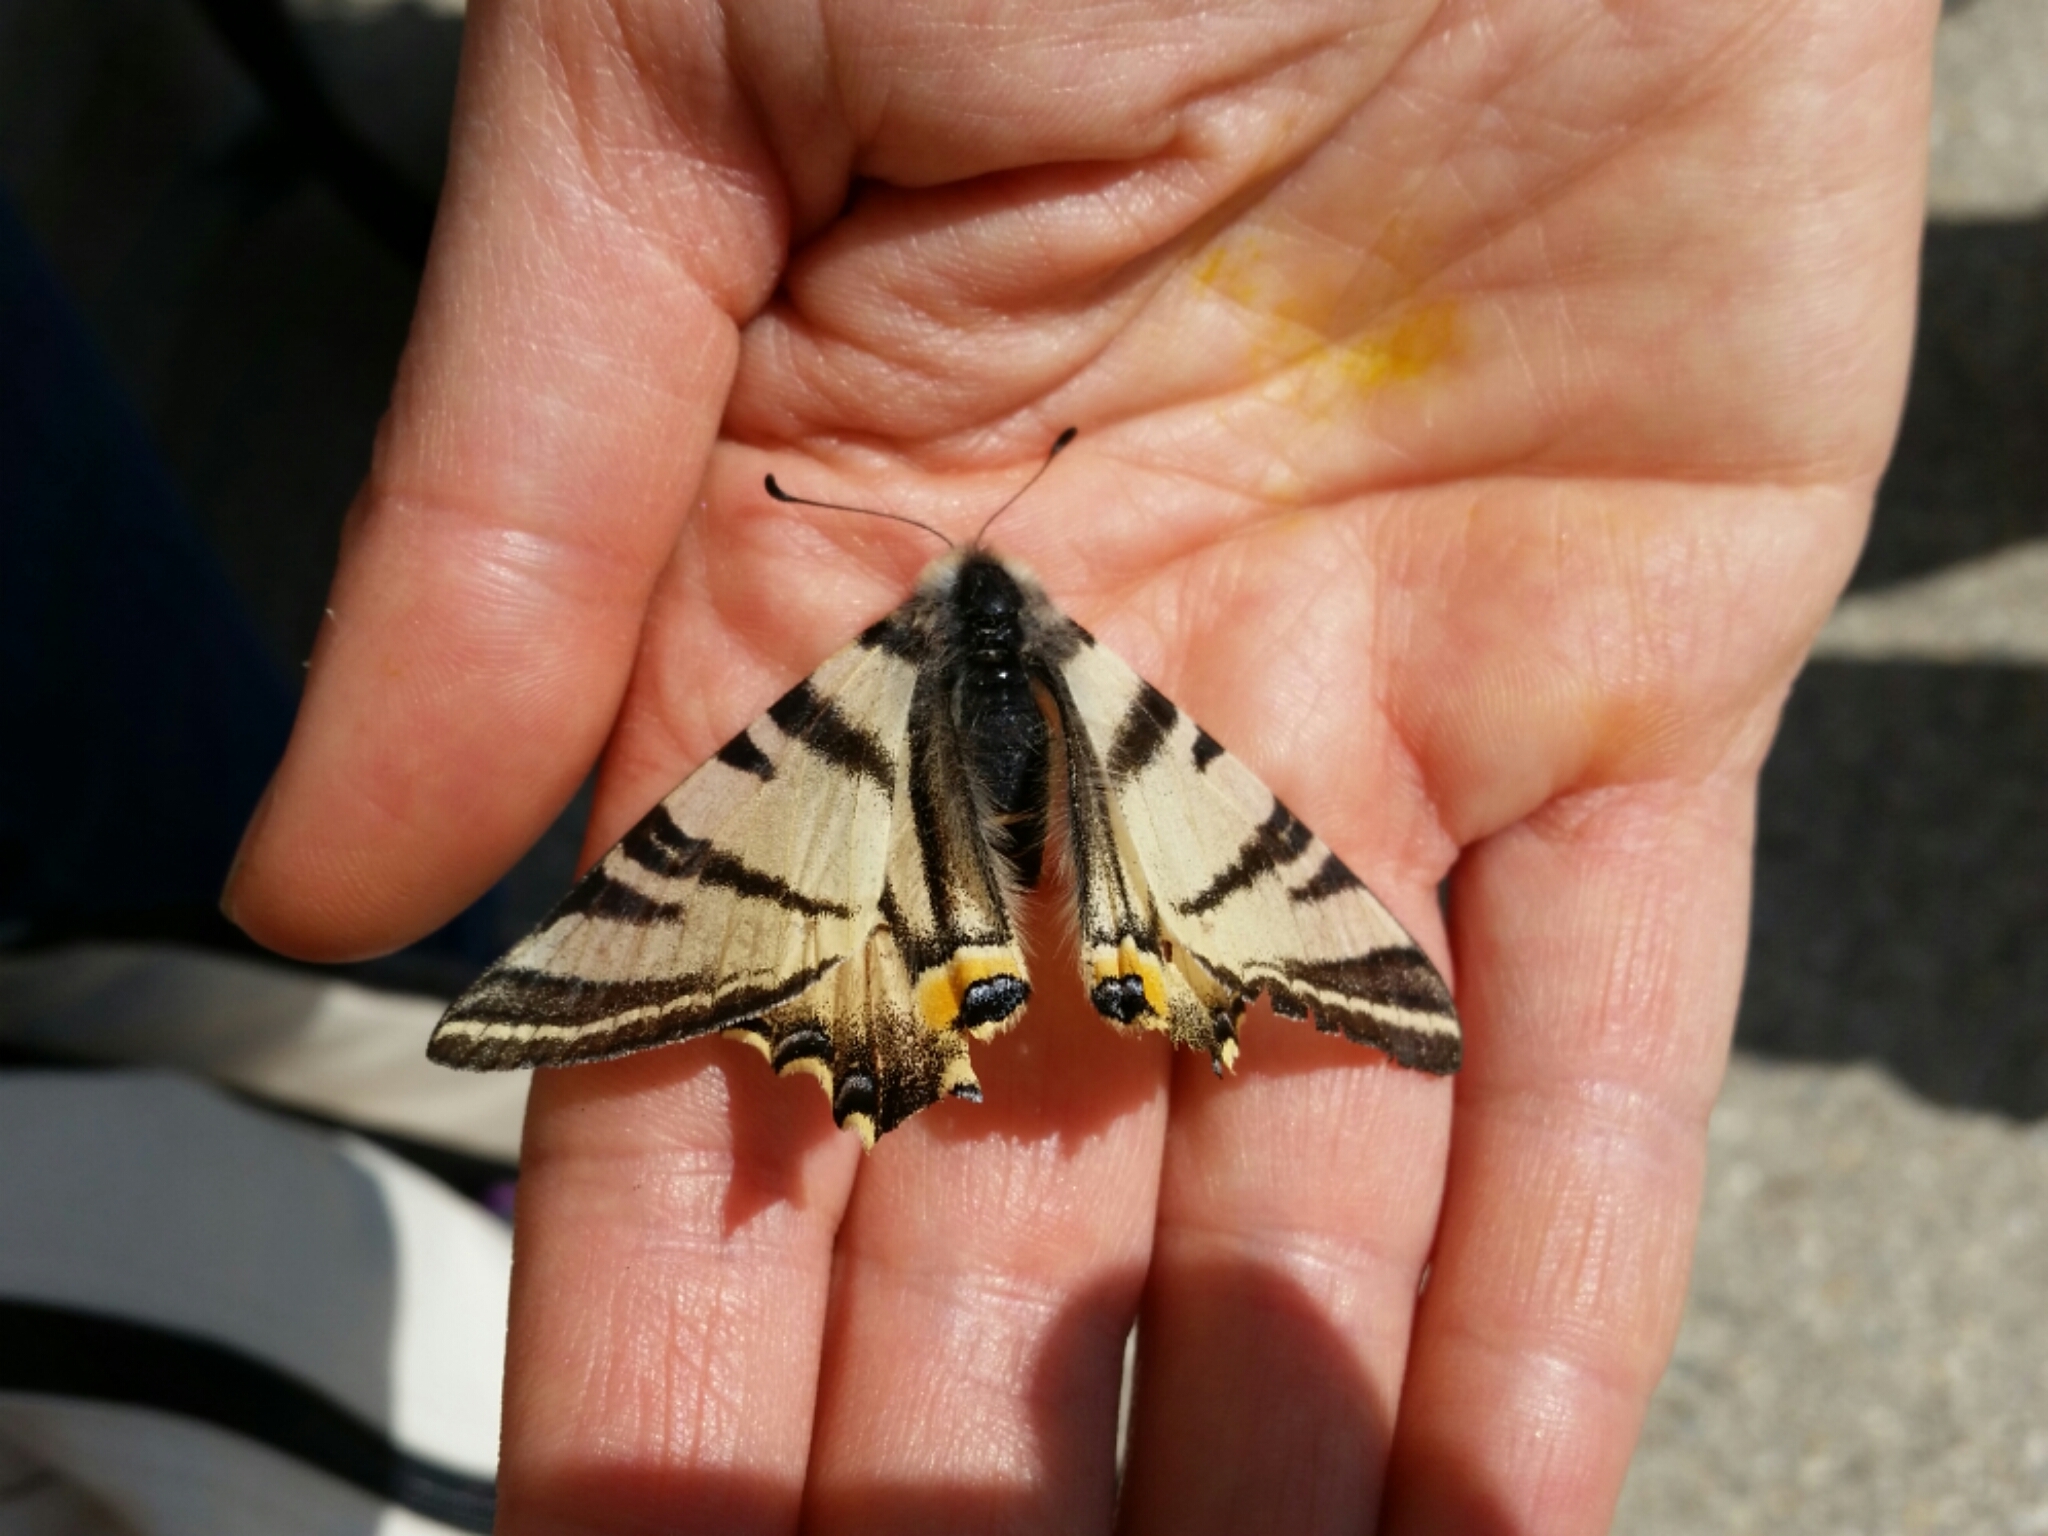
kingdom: Animalia
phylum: Arthropoda
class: Insecta
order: Lepidoptera
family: Papilionidae
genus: Iphiclides
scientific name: Iphiclides podalirius
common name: Scarce swallowtail
